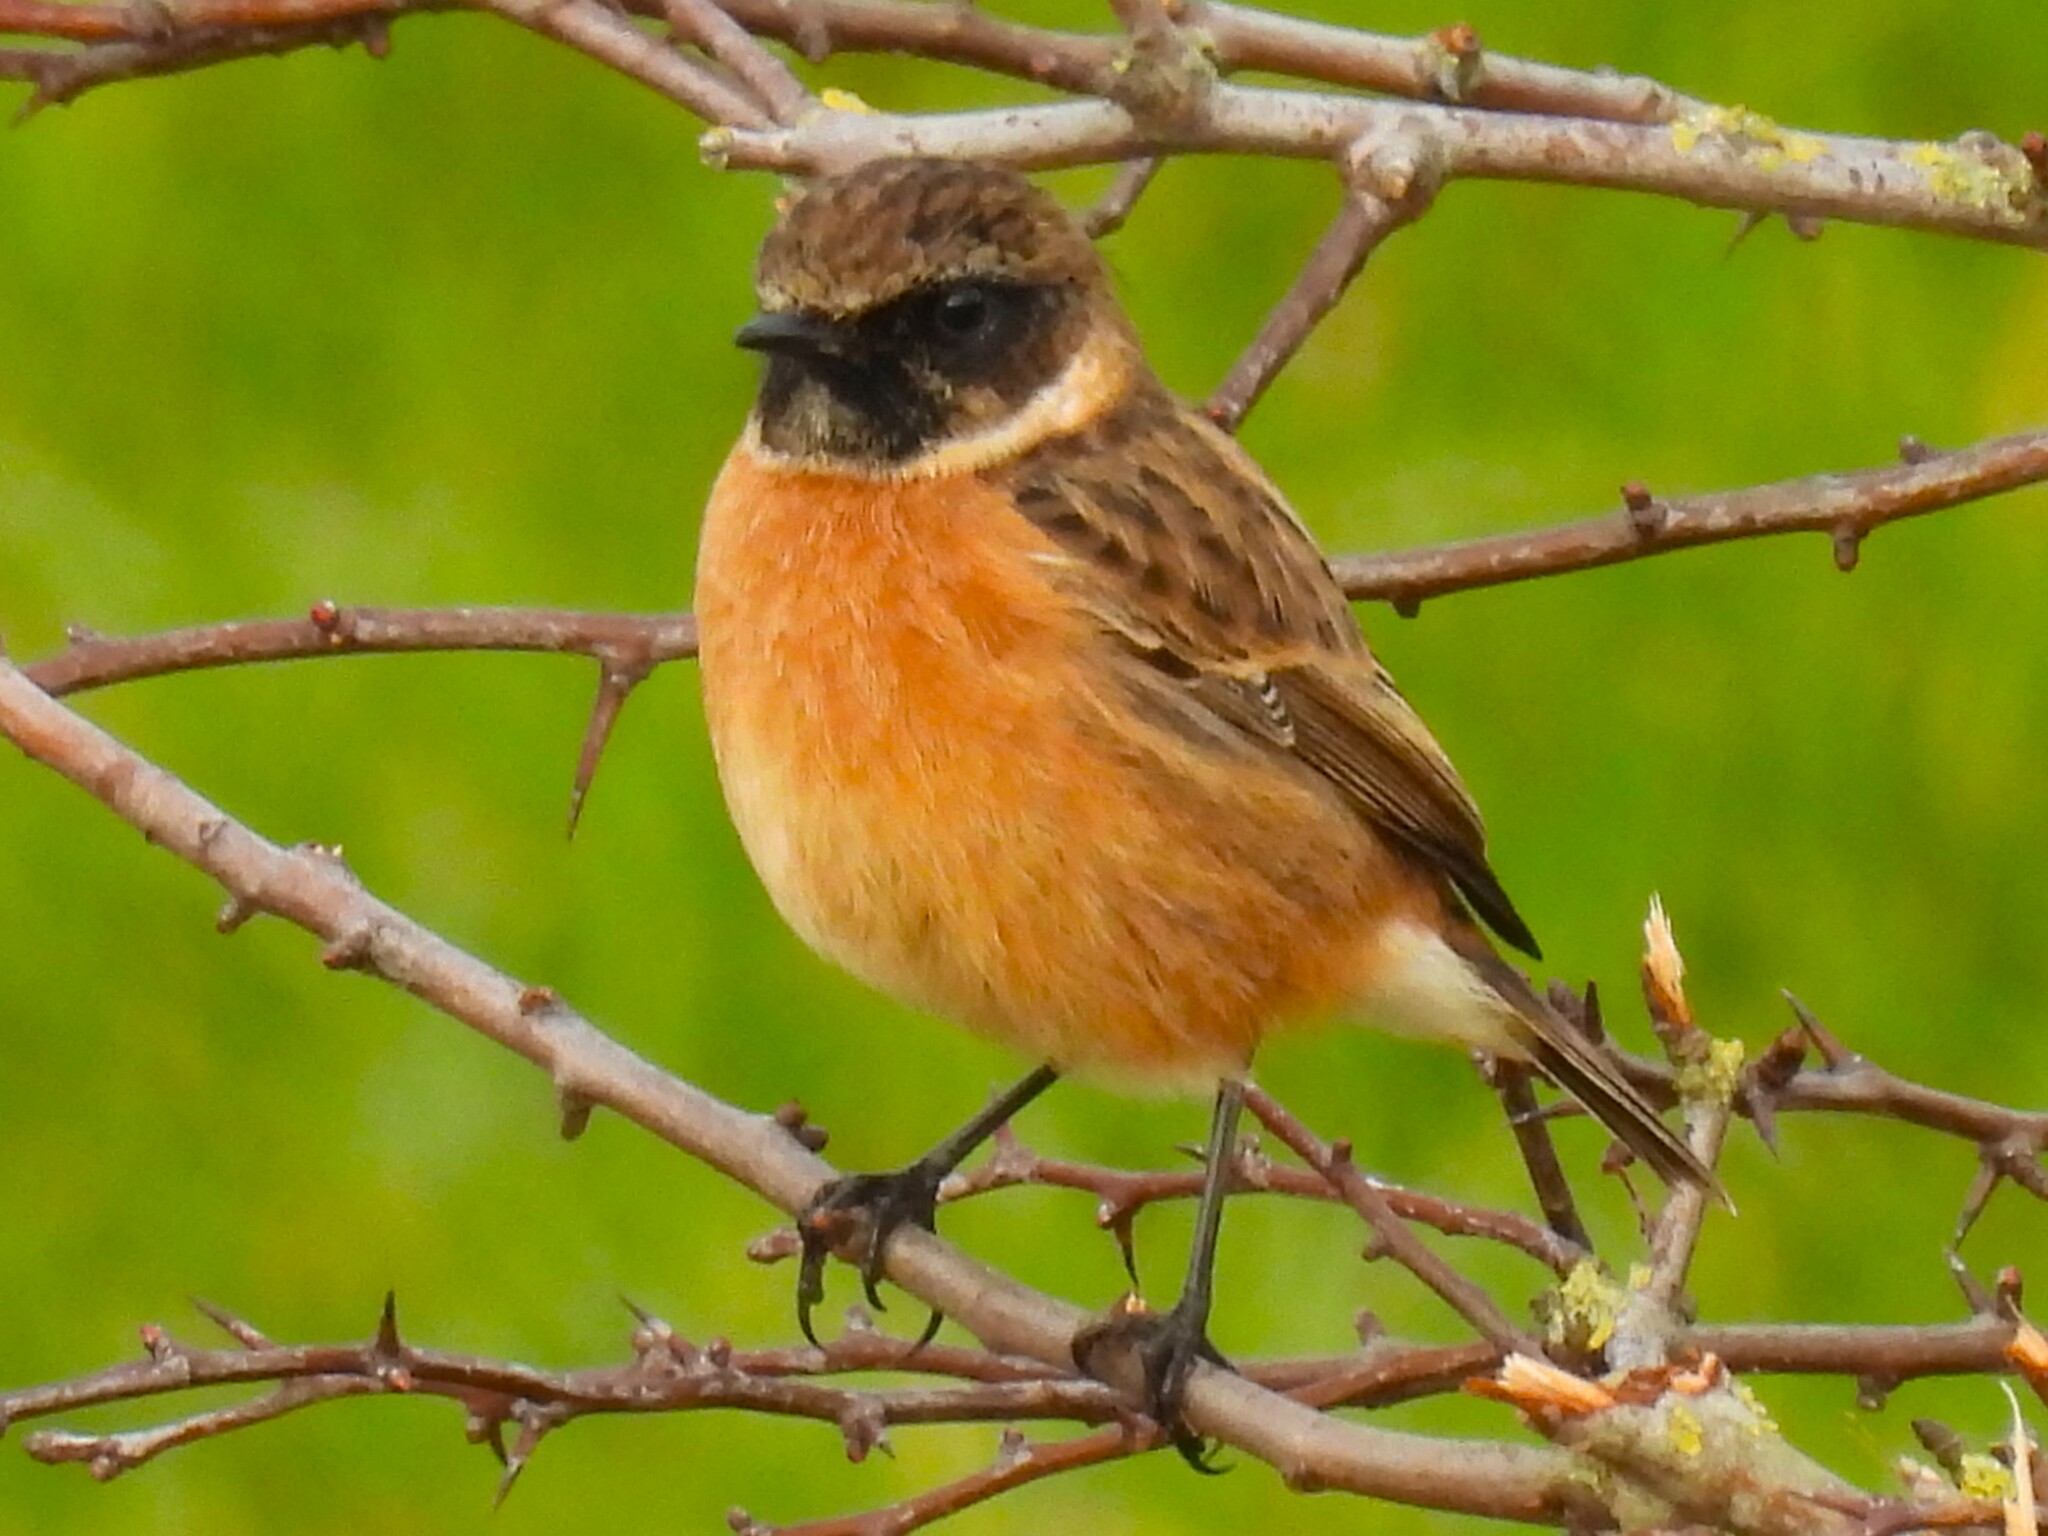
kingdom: Animalia
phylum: Chordata
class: Aves
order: Passeriformes
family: Muscicapidae
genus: Saxicola
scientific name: Saxicola rubicola
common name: European stonechat
